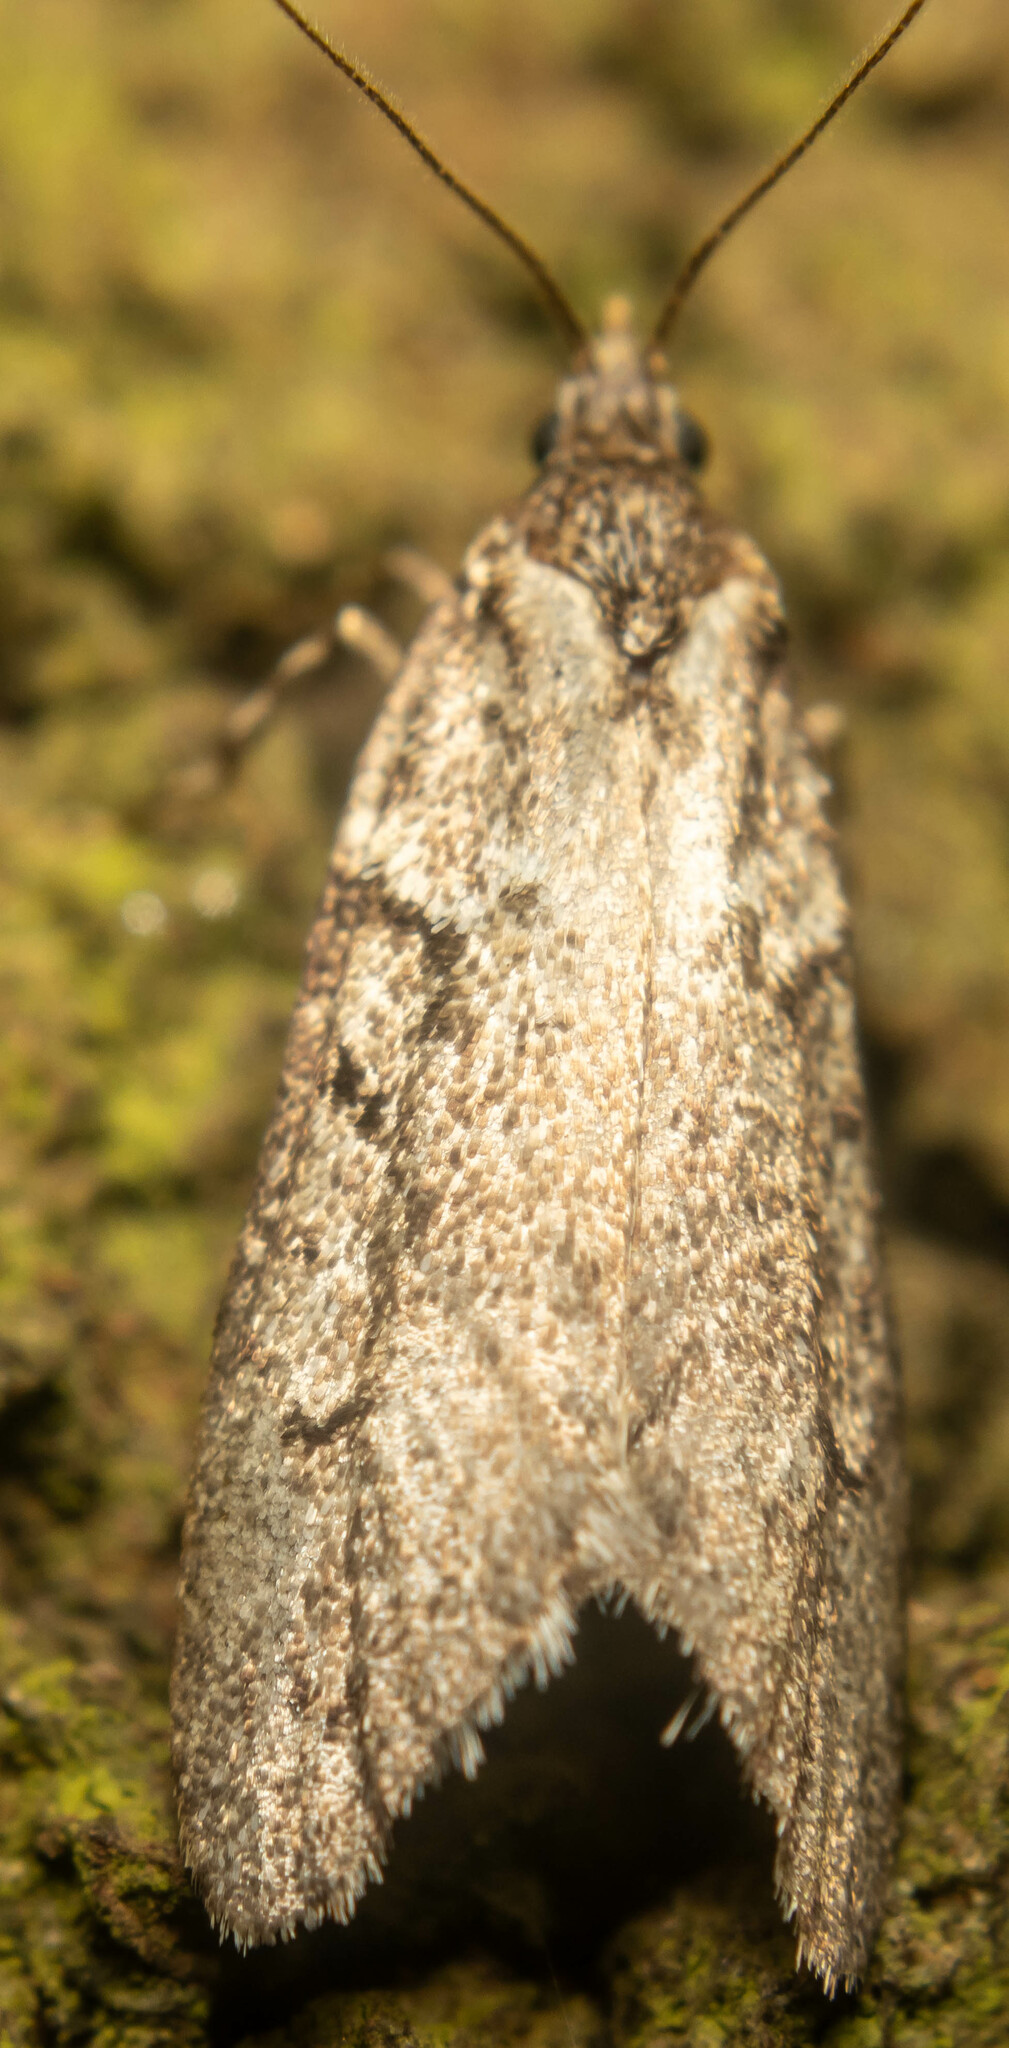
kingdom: Animalia
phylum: Arthropoda
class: Insecta
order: Lepidoptera
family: Lypusidae
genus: Diurnea
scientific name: Diurnea fagella
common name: March tubic
